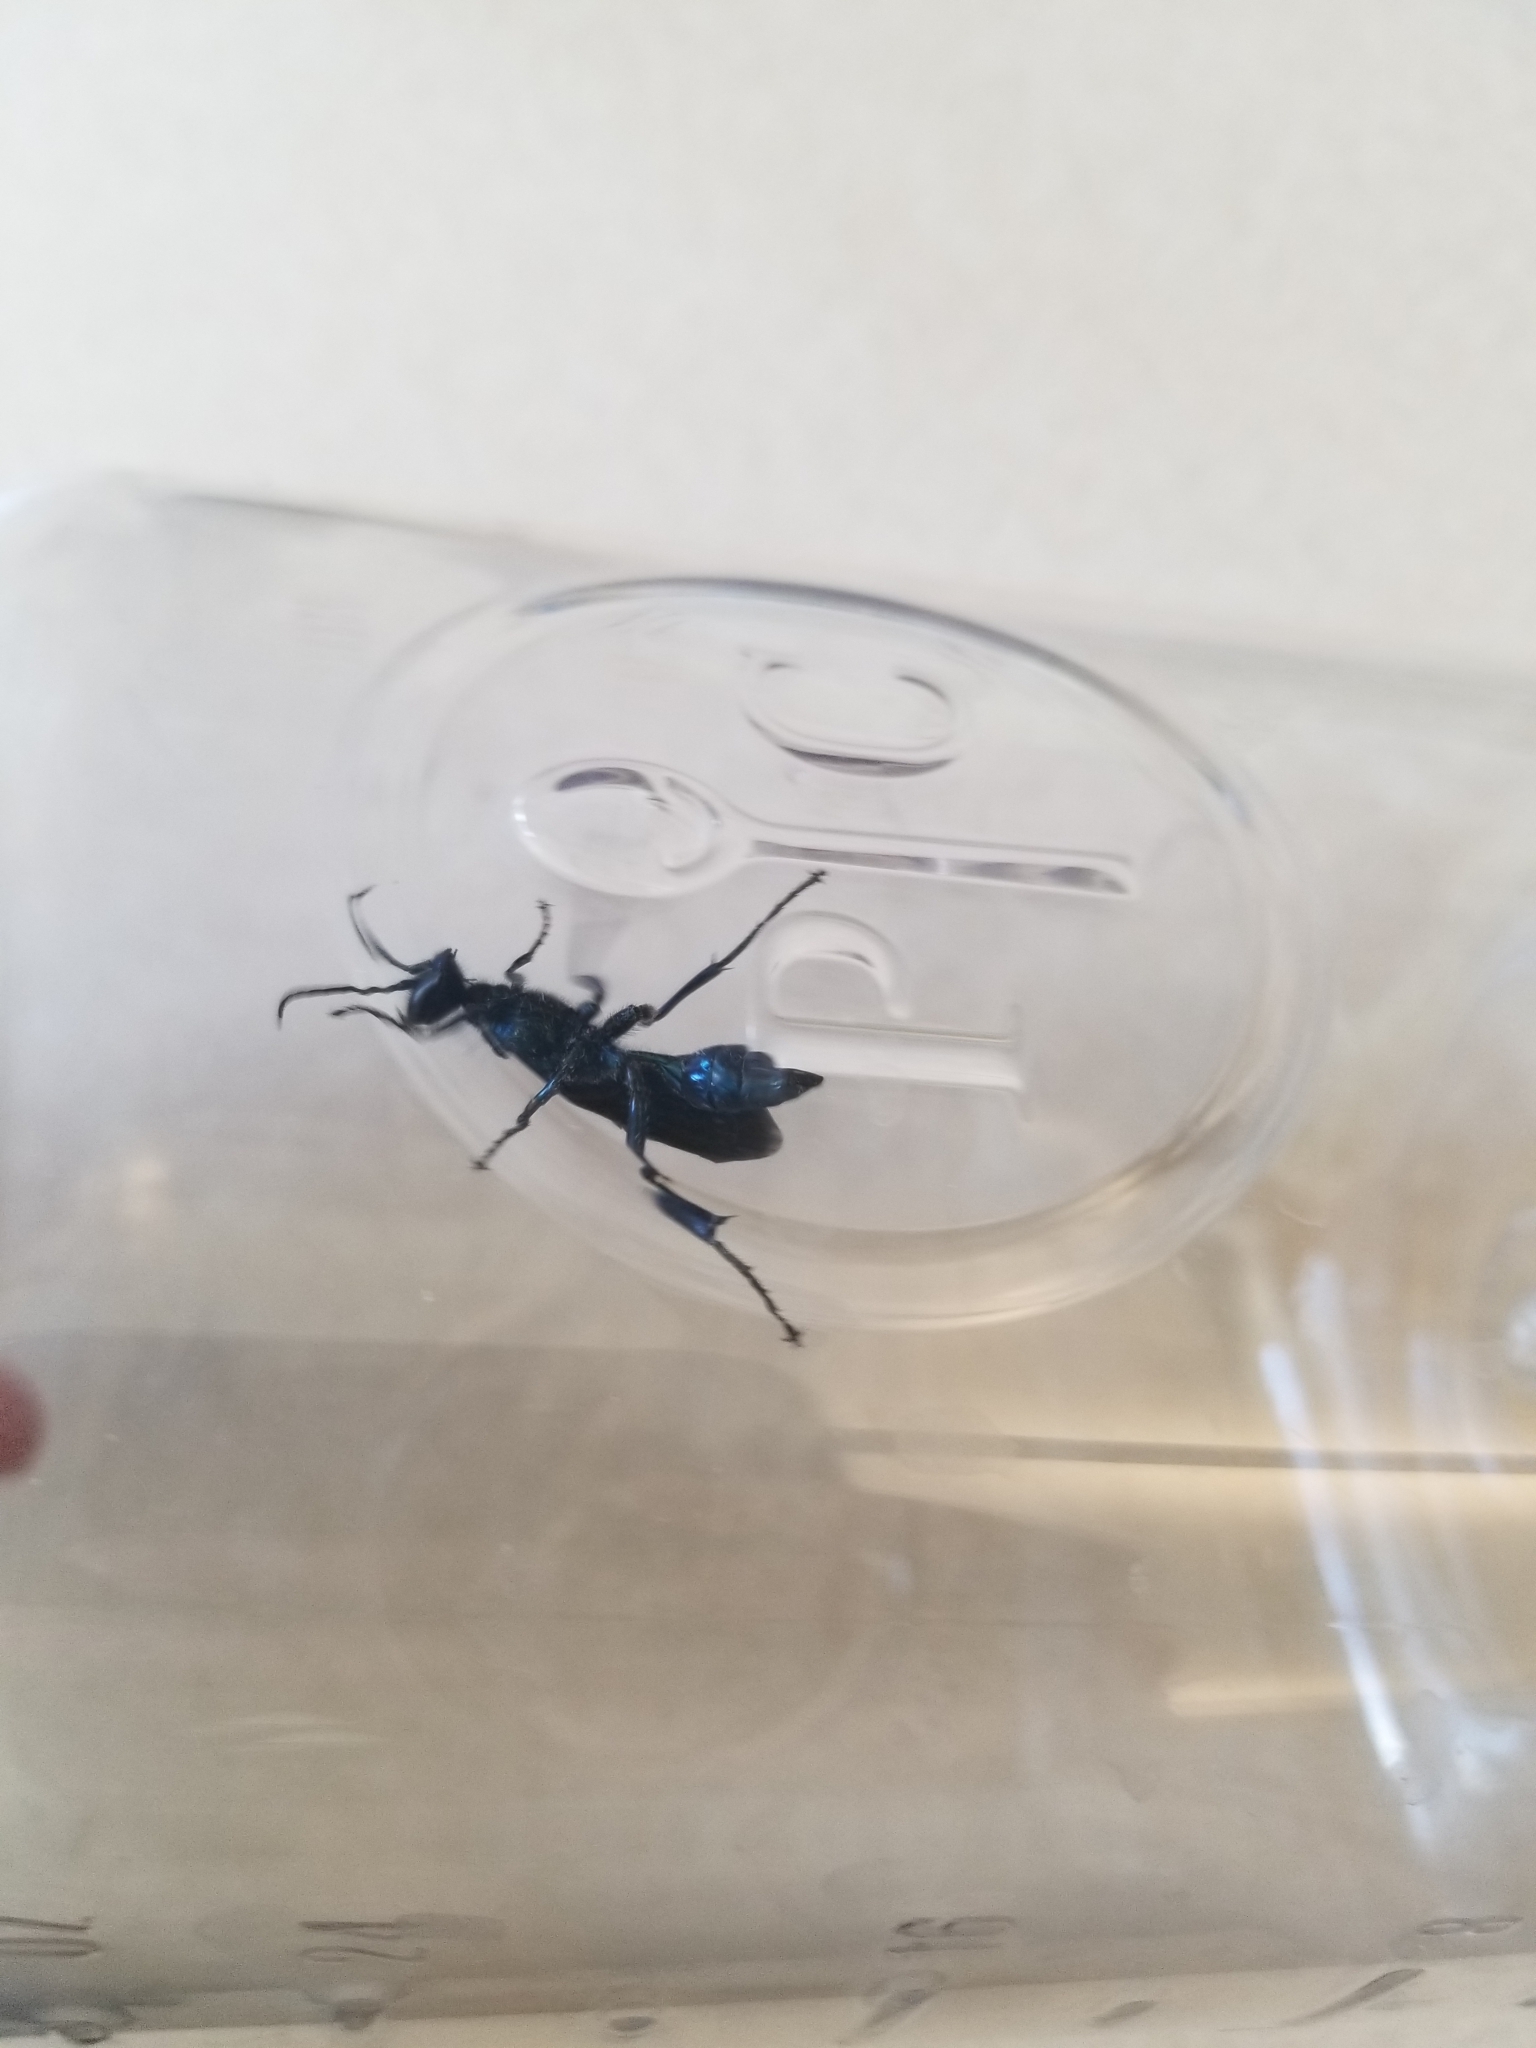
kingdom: Animalia
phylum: Arthropoda
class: Insecta
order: Hymenoptera
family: Sphecidae
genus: Chalybion
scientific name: Chalybion californicum
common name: Mud dauber
